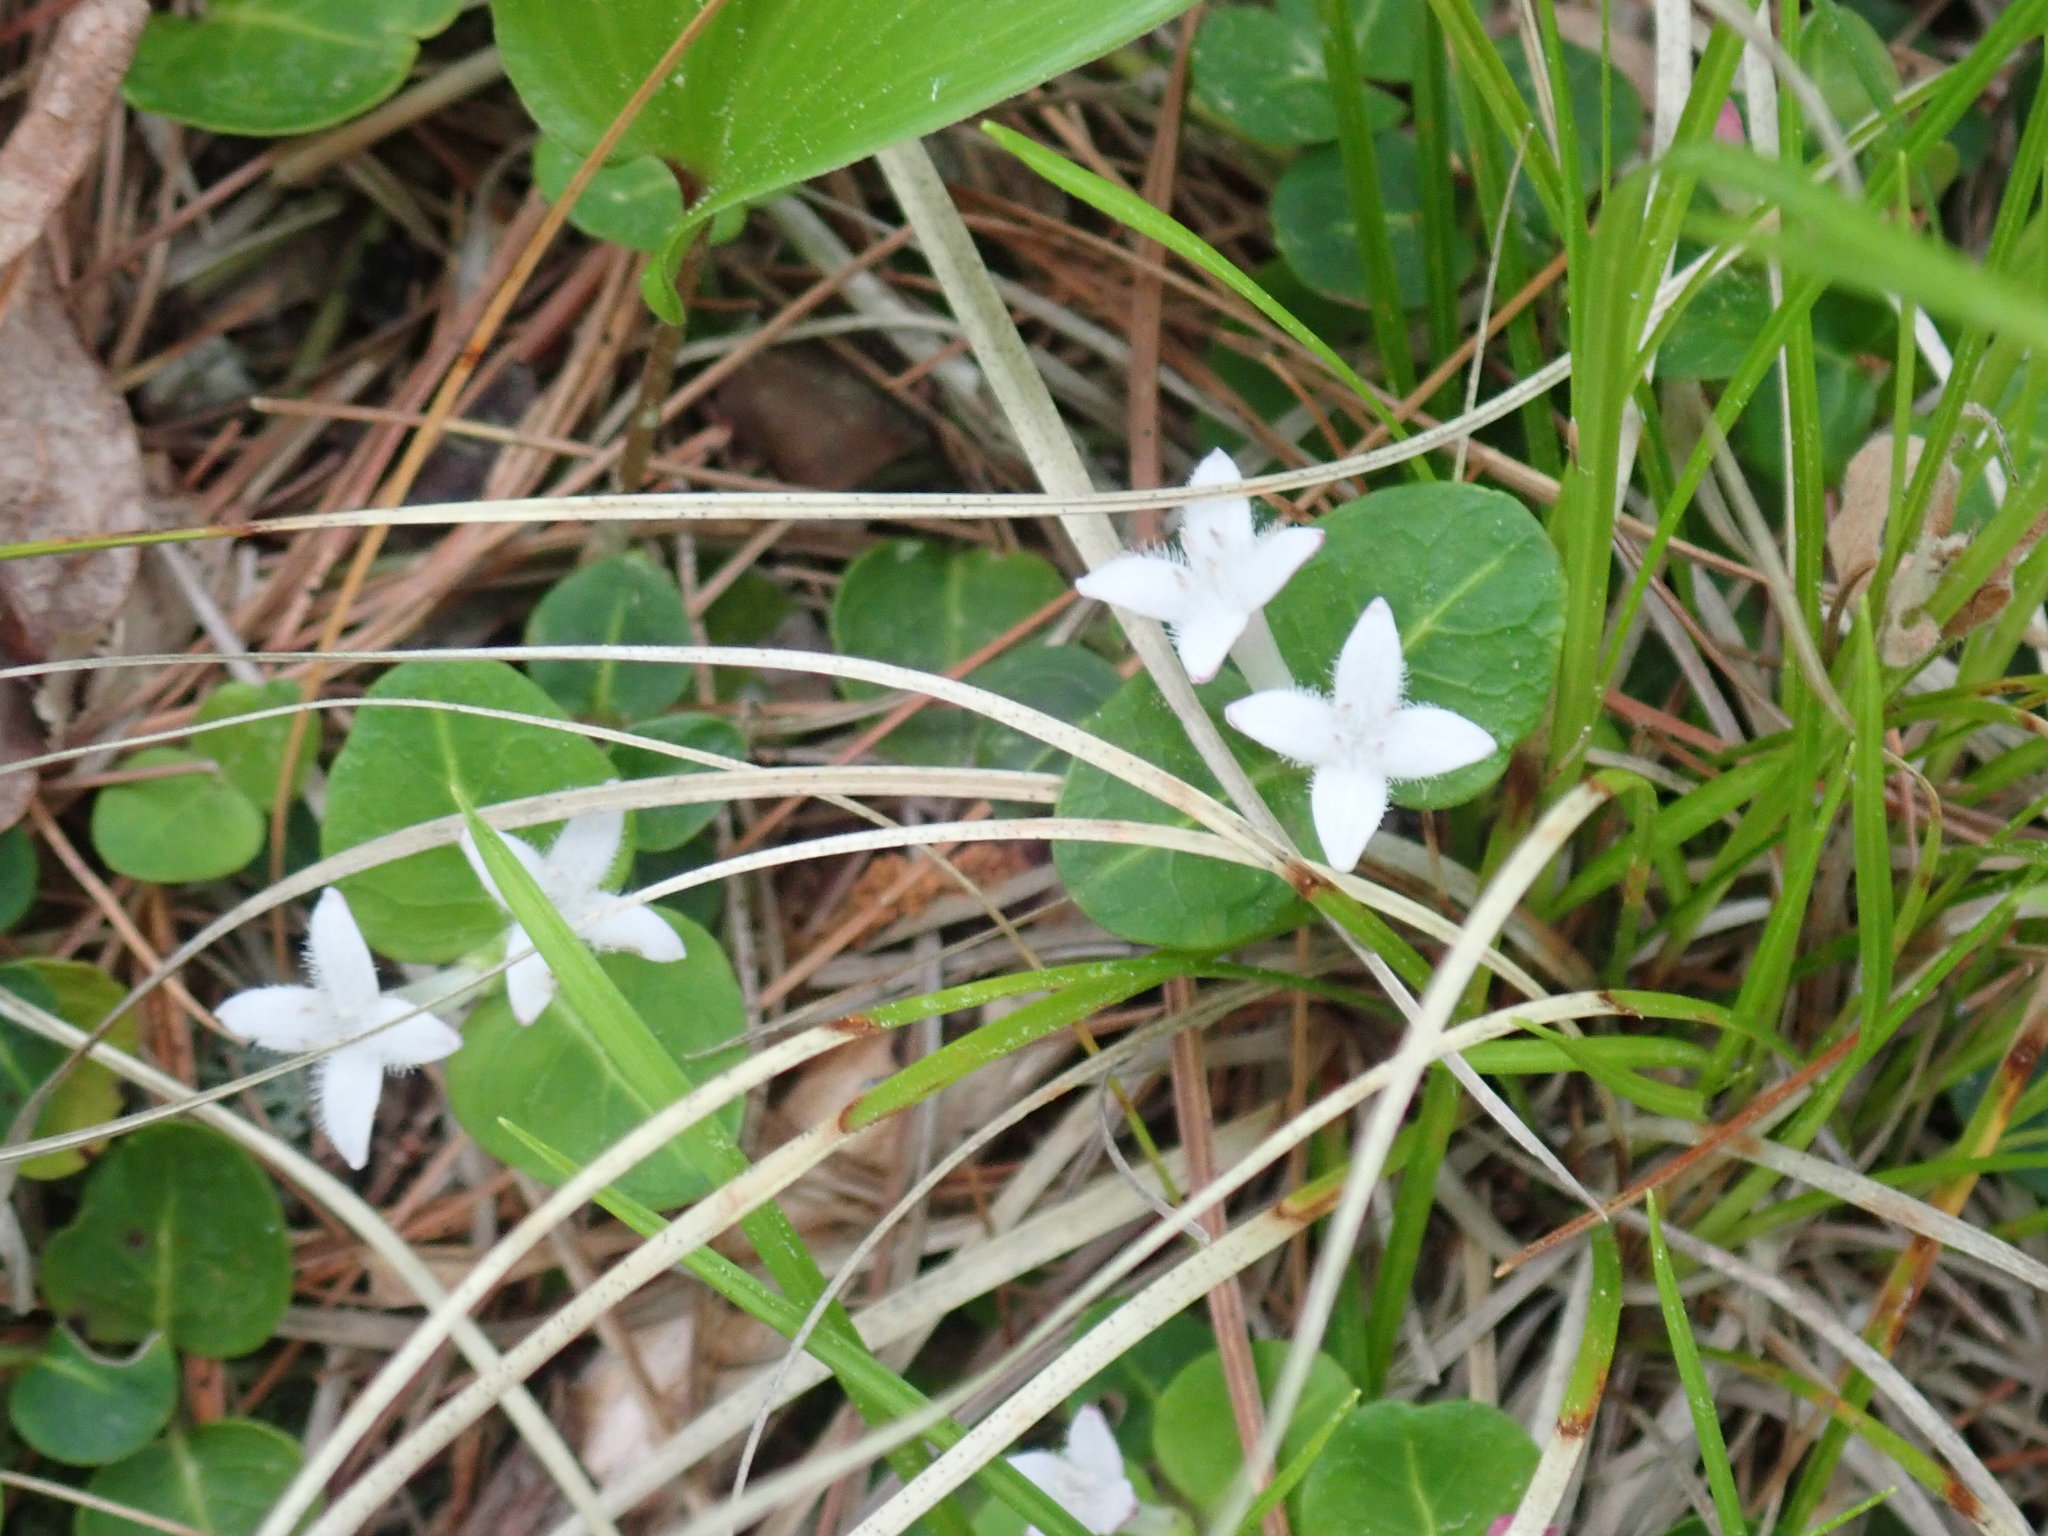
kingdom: Plantae
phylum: Tracheophyta
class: Magnoliopsida
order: Gentianales
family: Rubiaceae
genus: Mitchella
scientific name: Mitchella repens
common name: Partridge-berry
